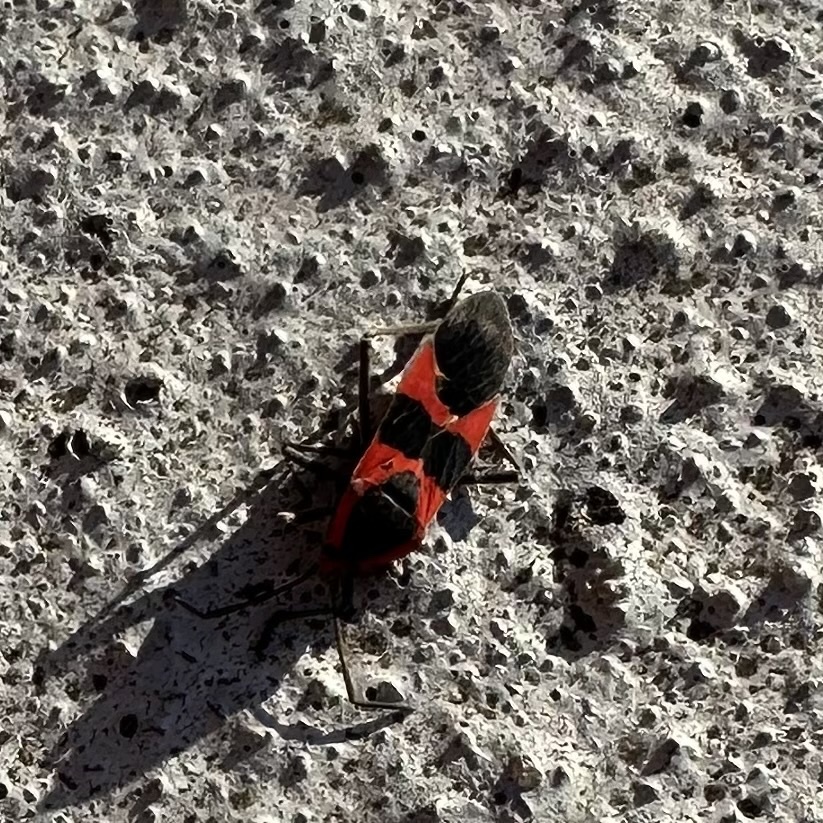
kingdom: Animalia
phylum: Arthropoda
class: Insecta
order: Hemiptera
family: Lygaeidae
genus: Oncopeltus
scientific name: Oncopeltus fasciatus
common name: Large milkweed bug
